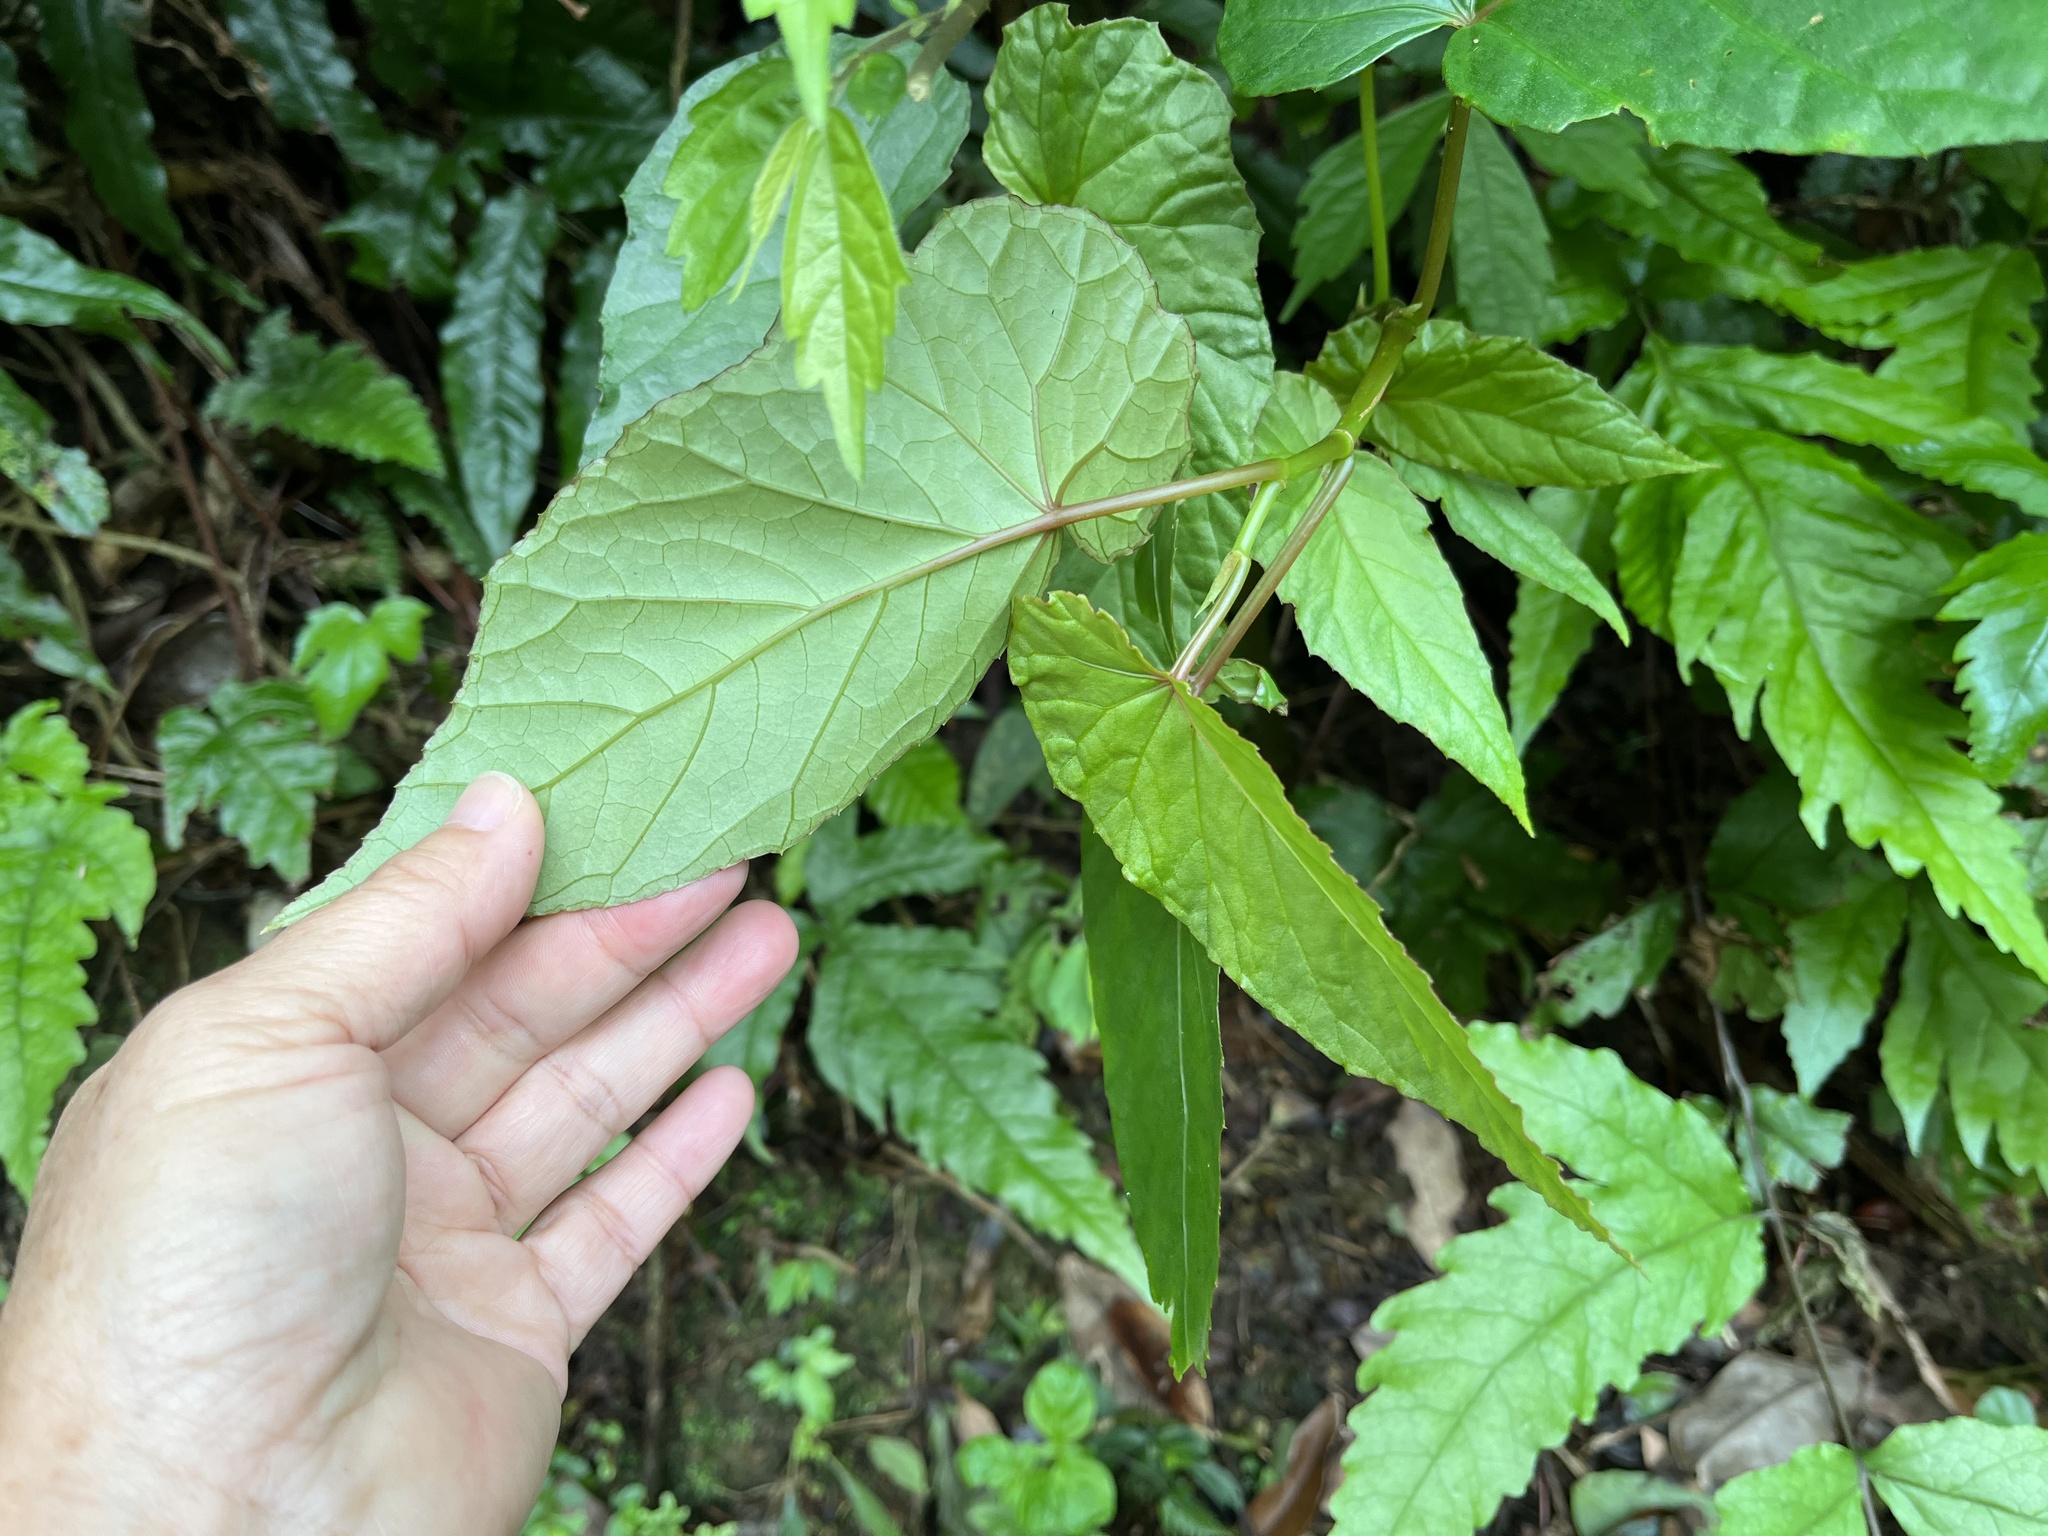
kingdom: Plantae
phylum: Tracheophyta
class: Magnoliopsida
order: Cucurbitales
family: Begoniaceae
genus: Begonia
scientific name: Begonia longifolia
